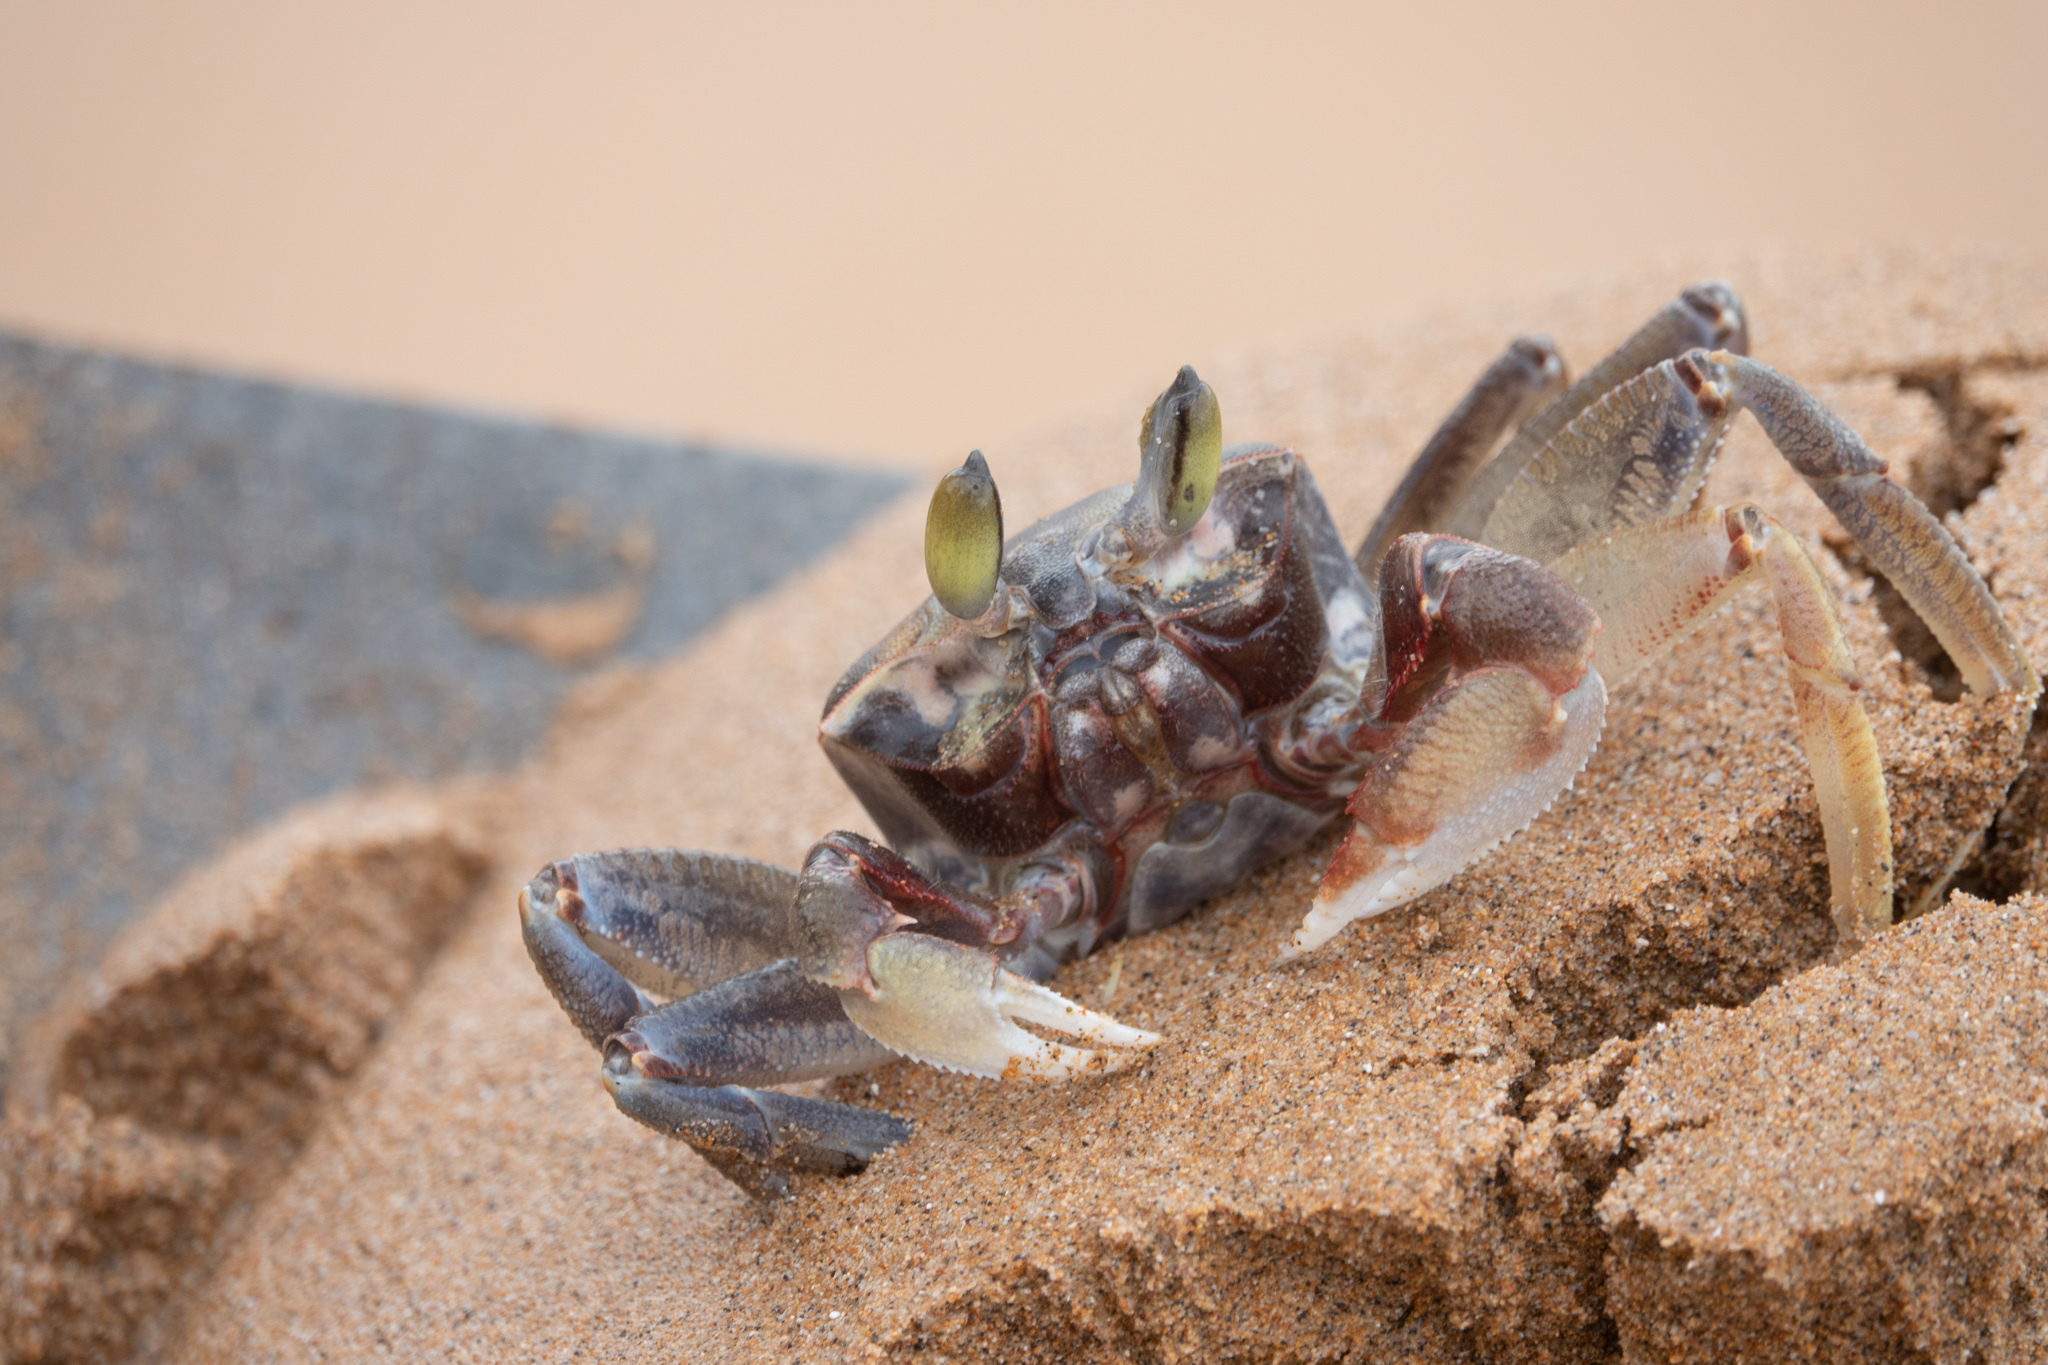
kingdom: Animalia
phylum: Arthropoda
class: Malacostraca
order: Decapoda
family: Ocypodidae
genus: Ocypode
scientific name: Ocypode ceratophthalmus
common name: Indo-pacific ghost crab
